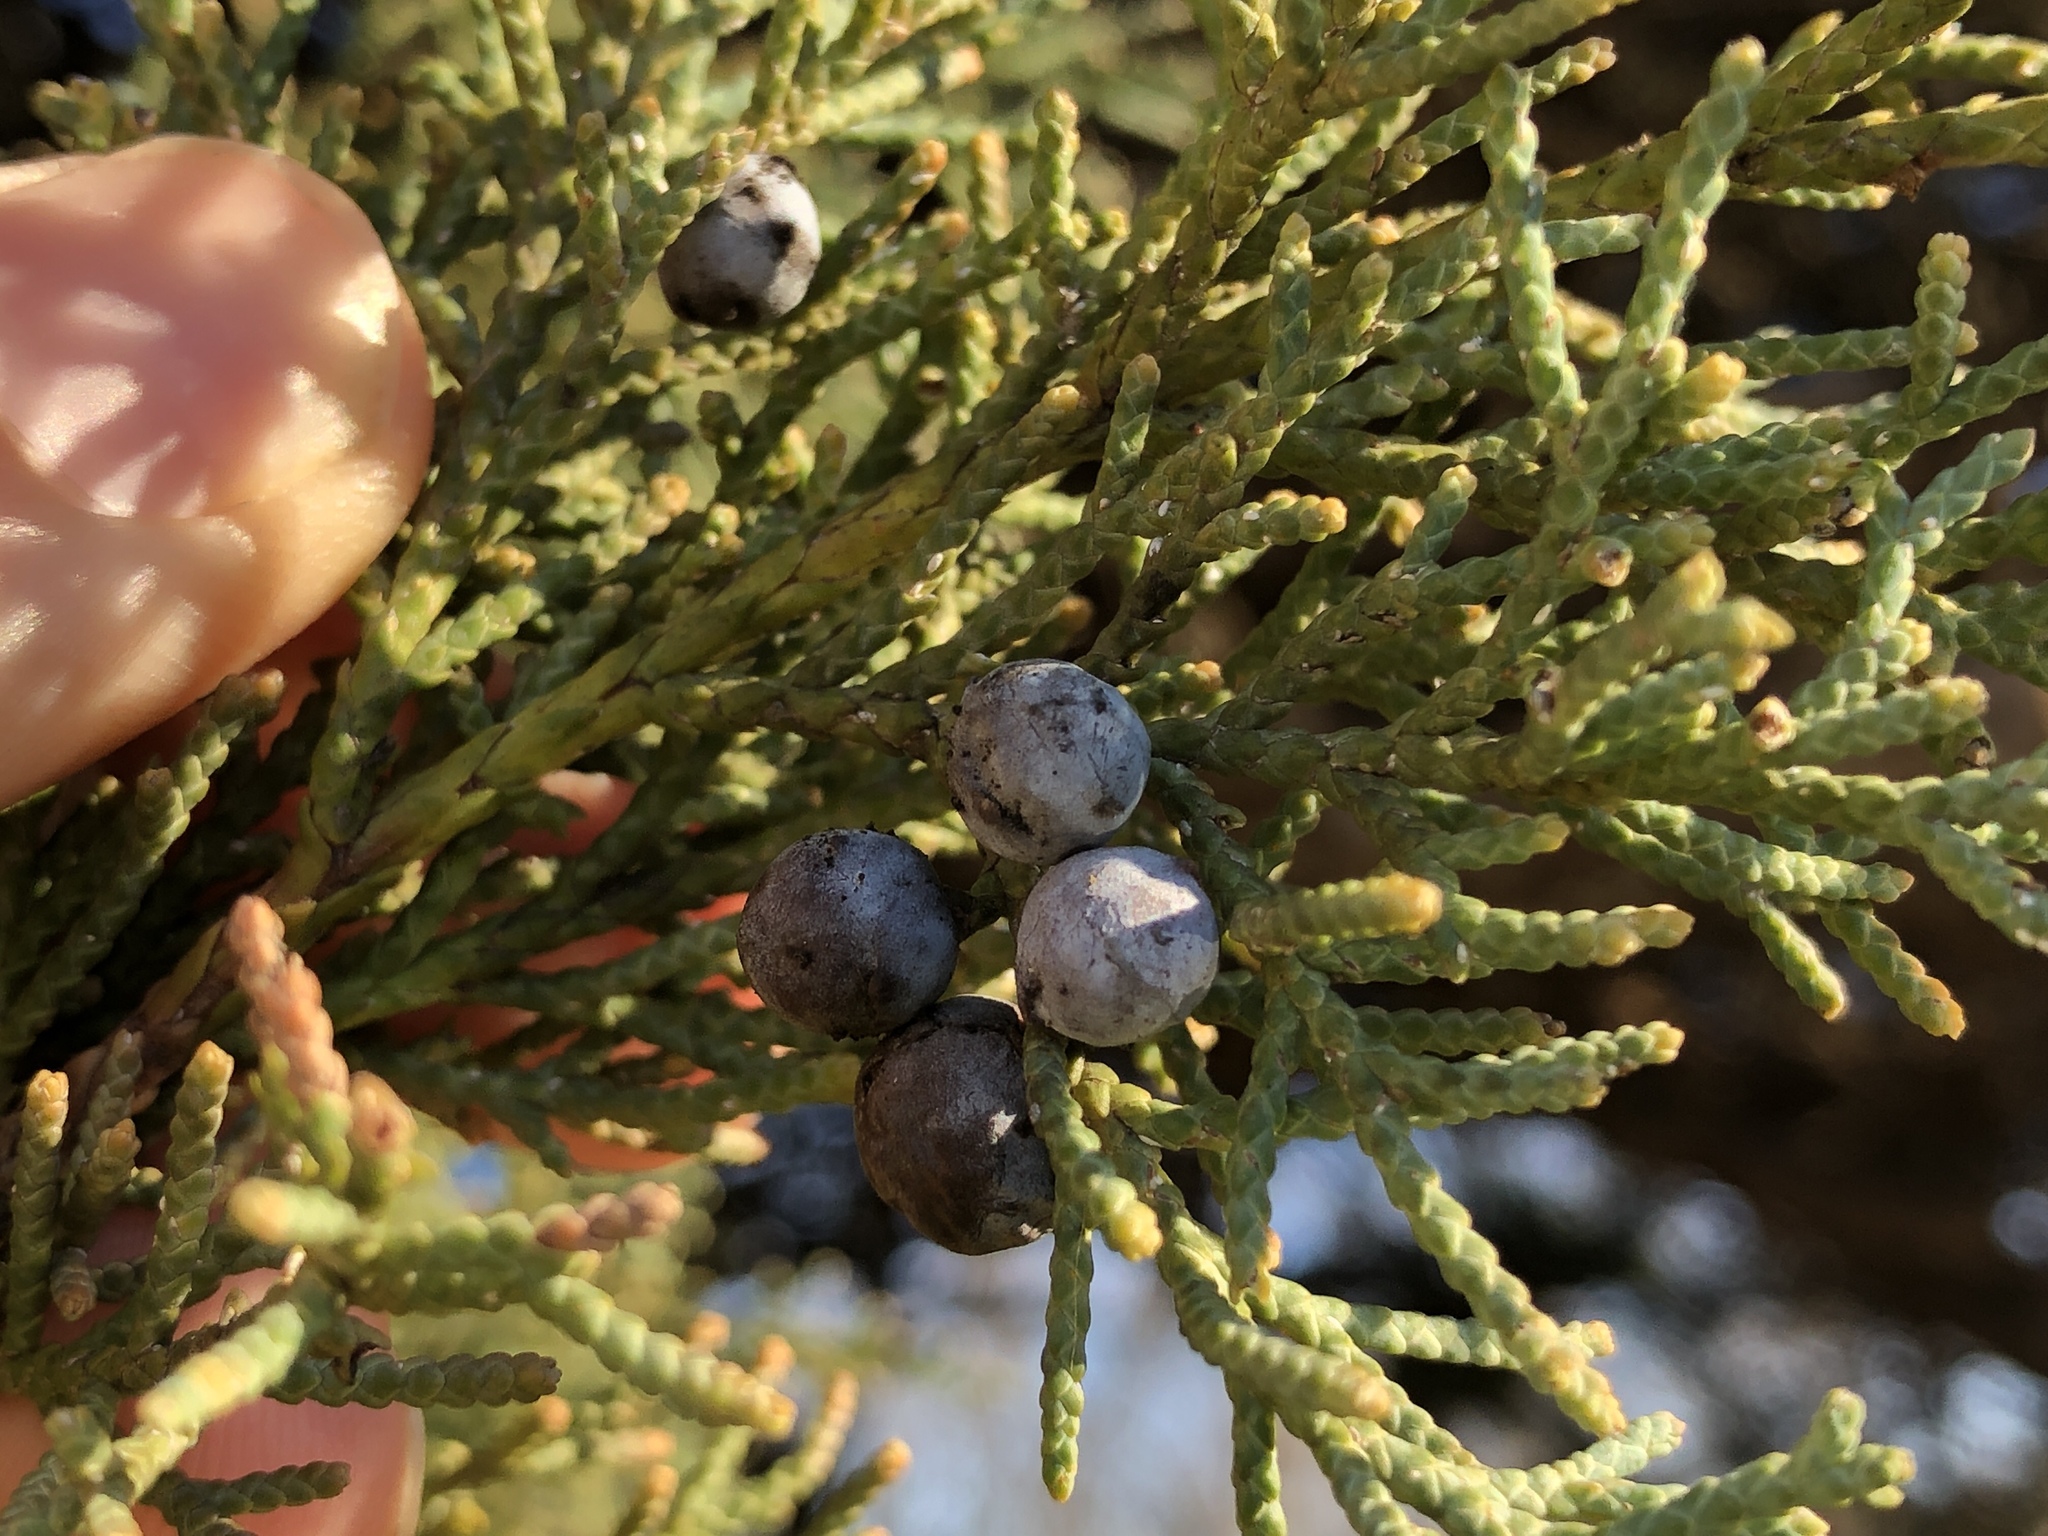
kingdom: Plantae
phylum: Tracheophyta
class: Pinopsida
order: Pinales
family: Cupressaceae
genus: Juniperus
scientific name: Juniperus ashei
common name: Mexican juniper
